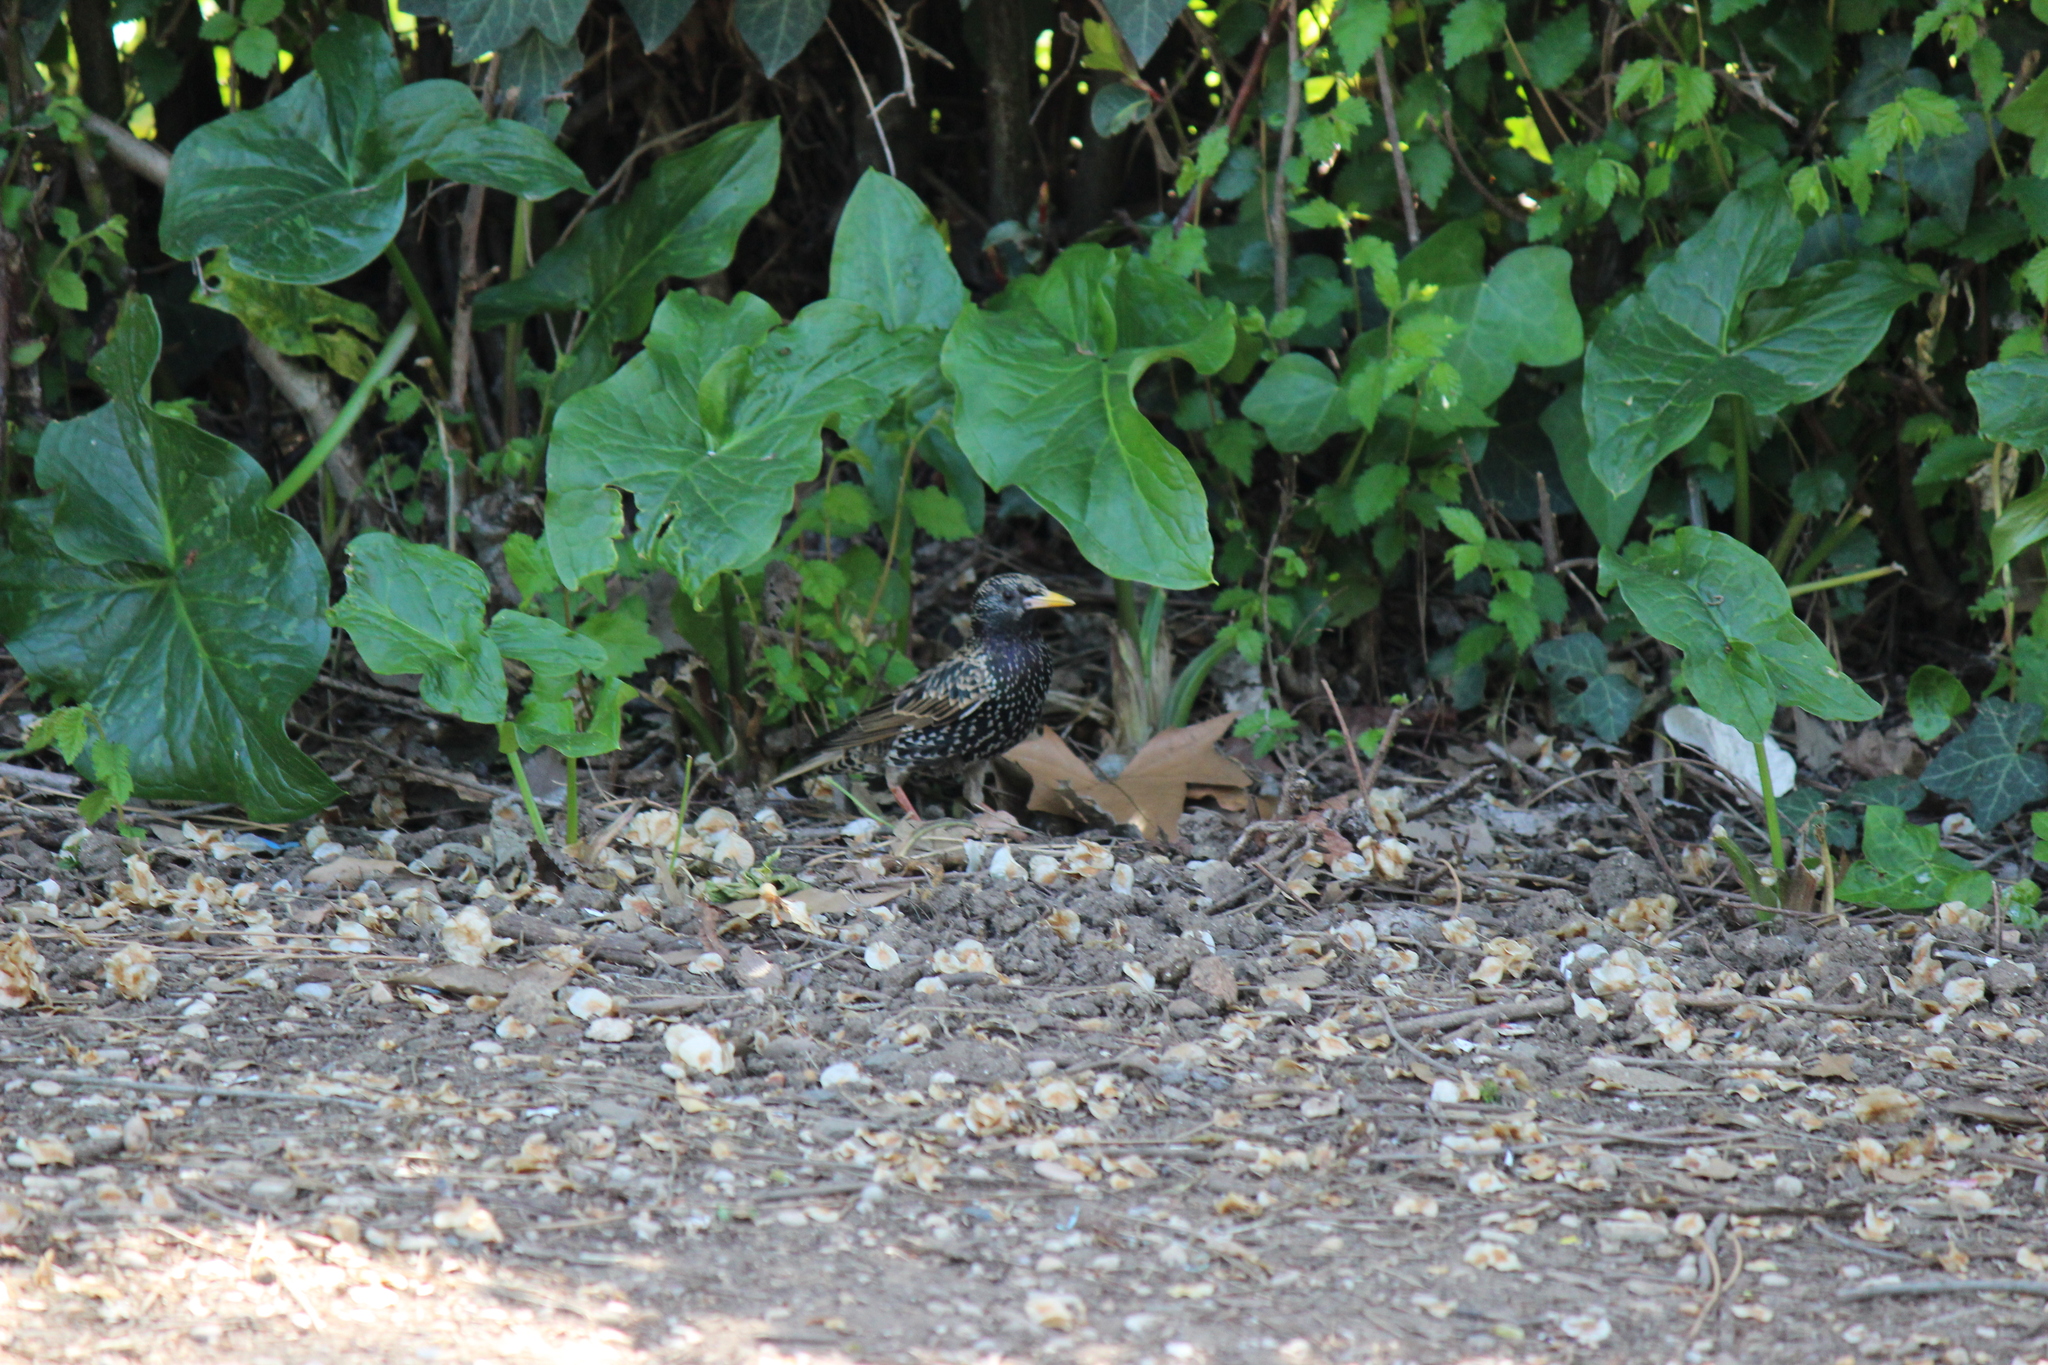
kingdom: Animalia
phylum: Chordata
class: Aves
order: Passeriformes
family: Sturnidae
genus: Sturnus
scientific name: Sturnus vulgaris
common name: Common starling
